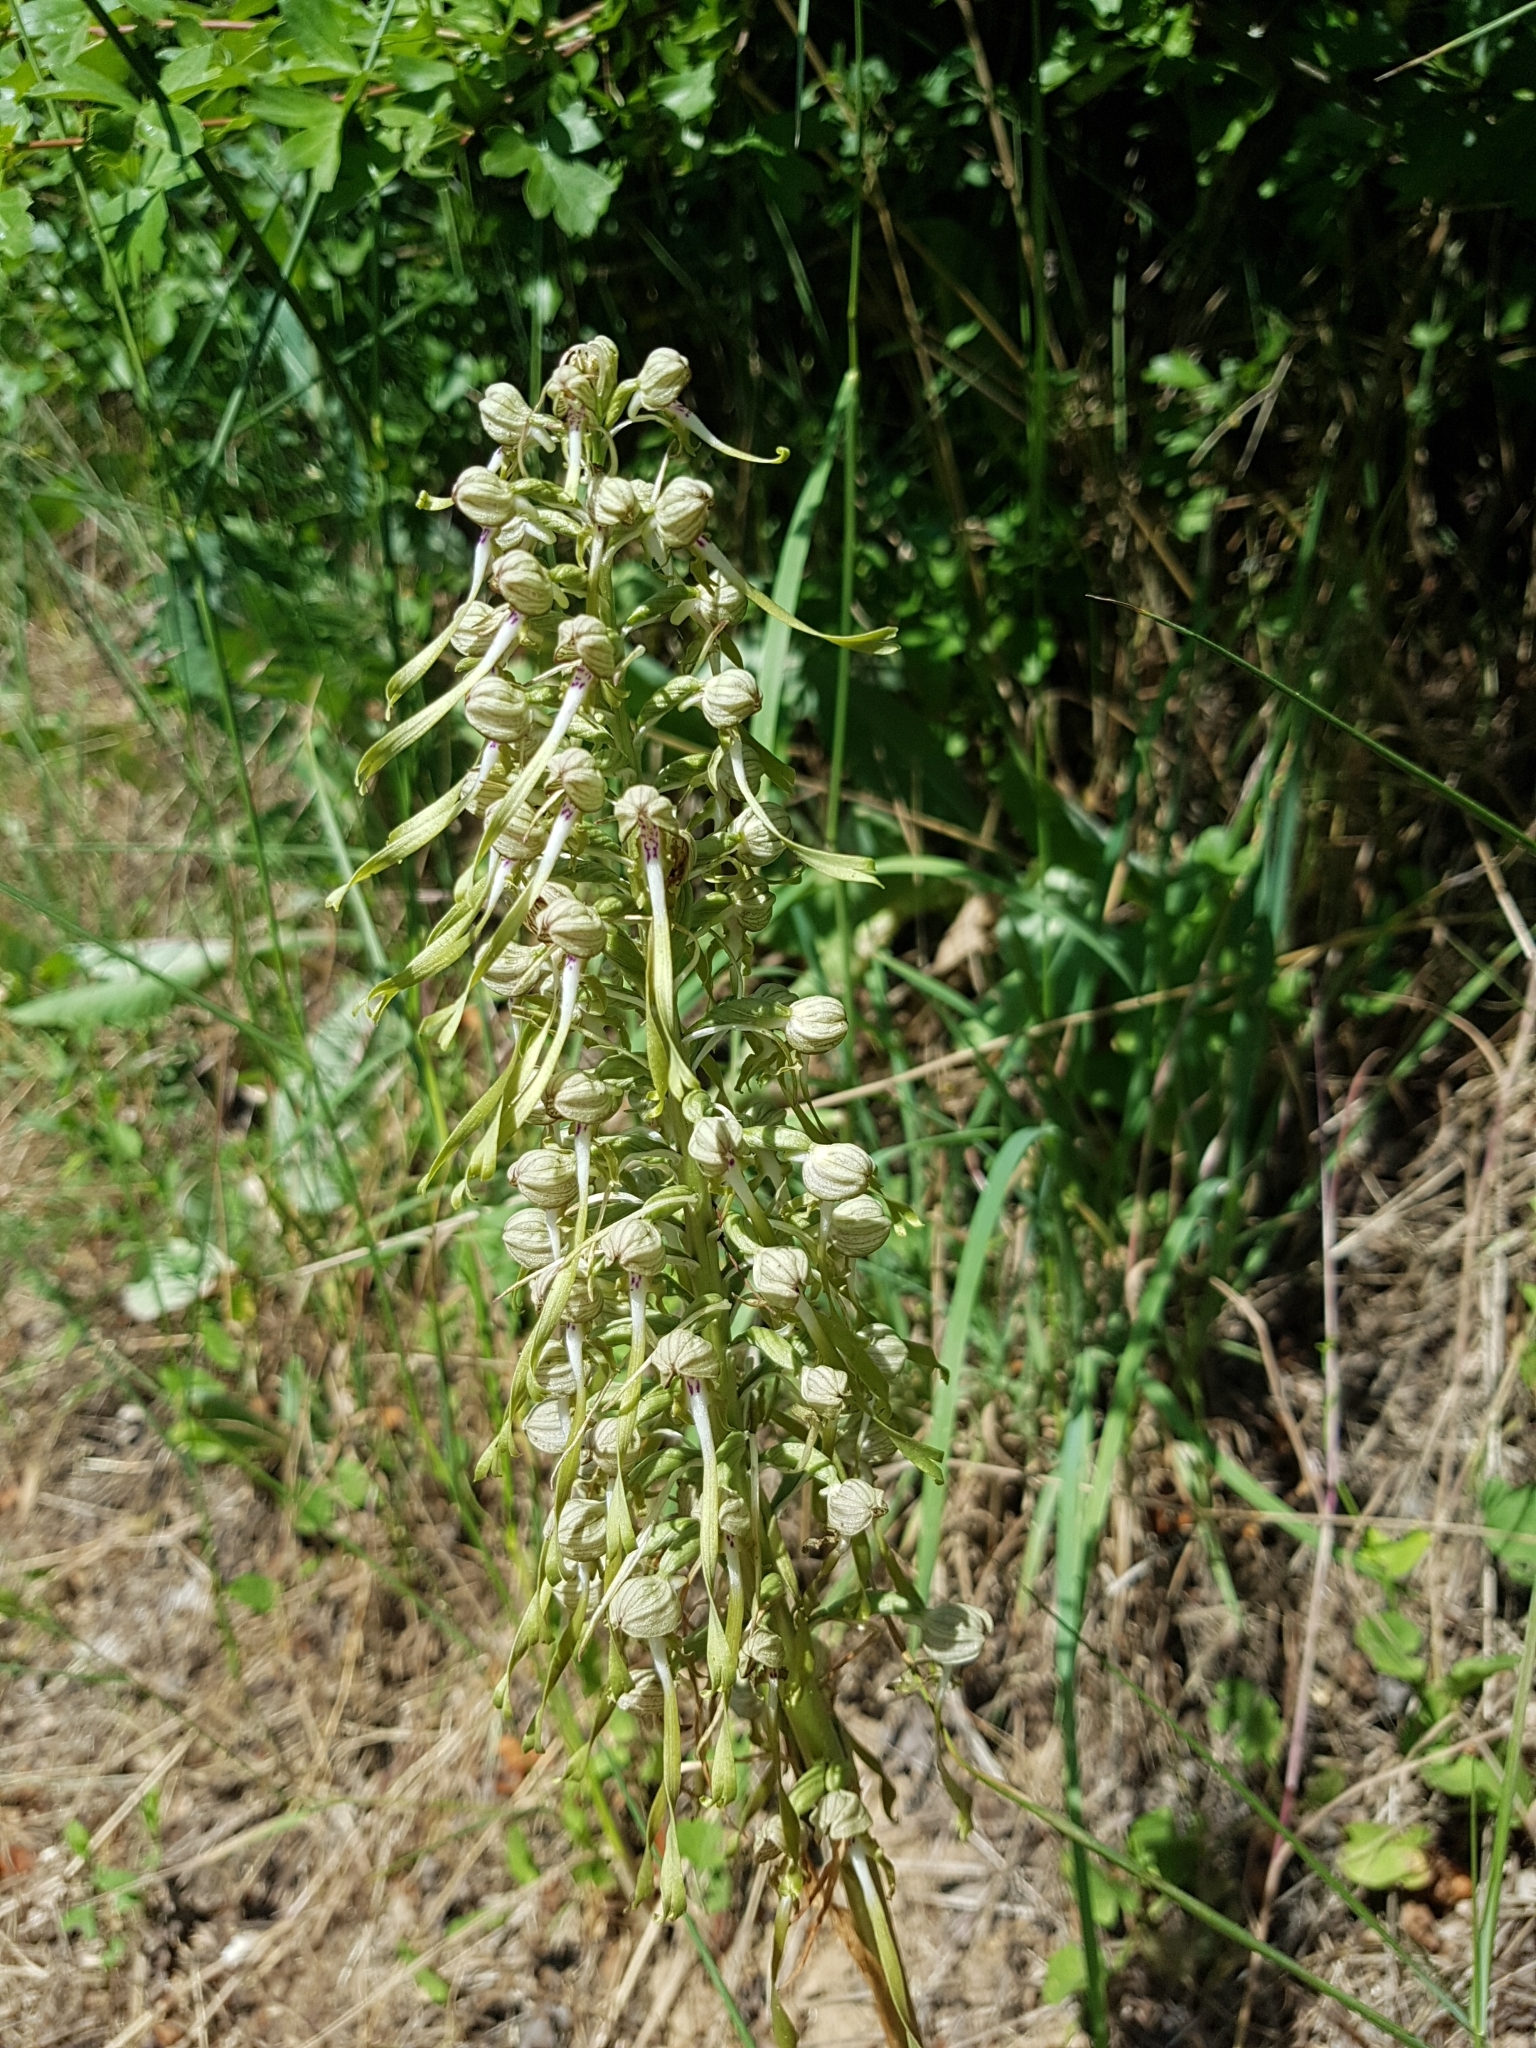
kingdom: Plantae
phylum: Tracheophyta
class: Liliopsida
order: Asparagales
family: Orchidaceae
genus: Himantoglossum
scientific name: Himantoglossum hircinum
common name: Lizard orchid
